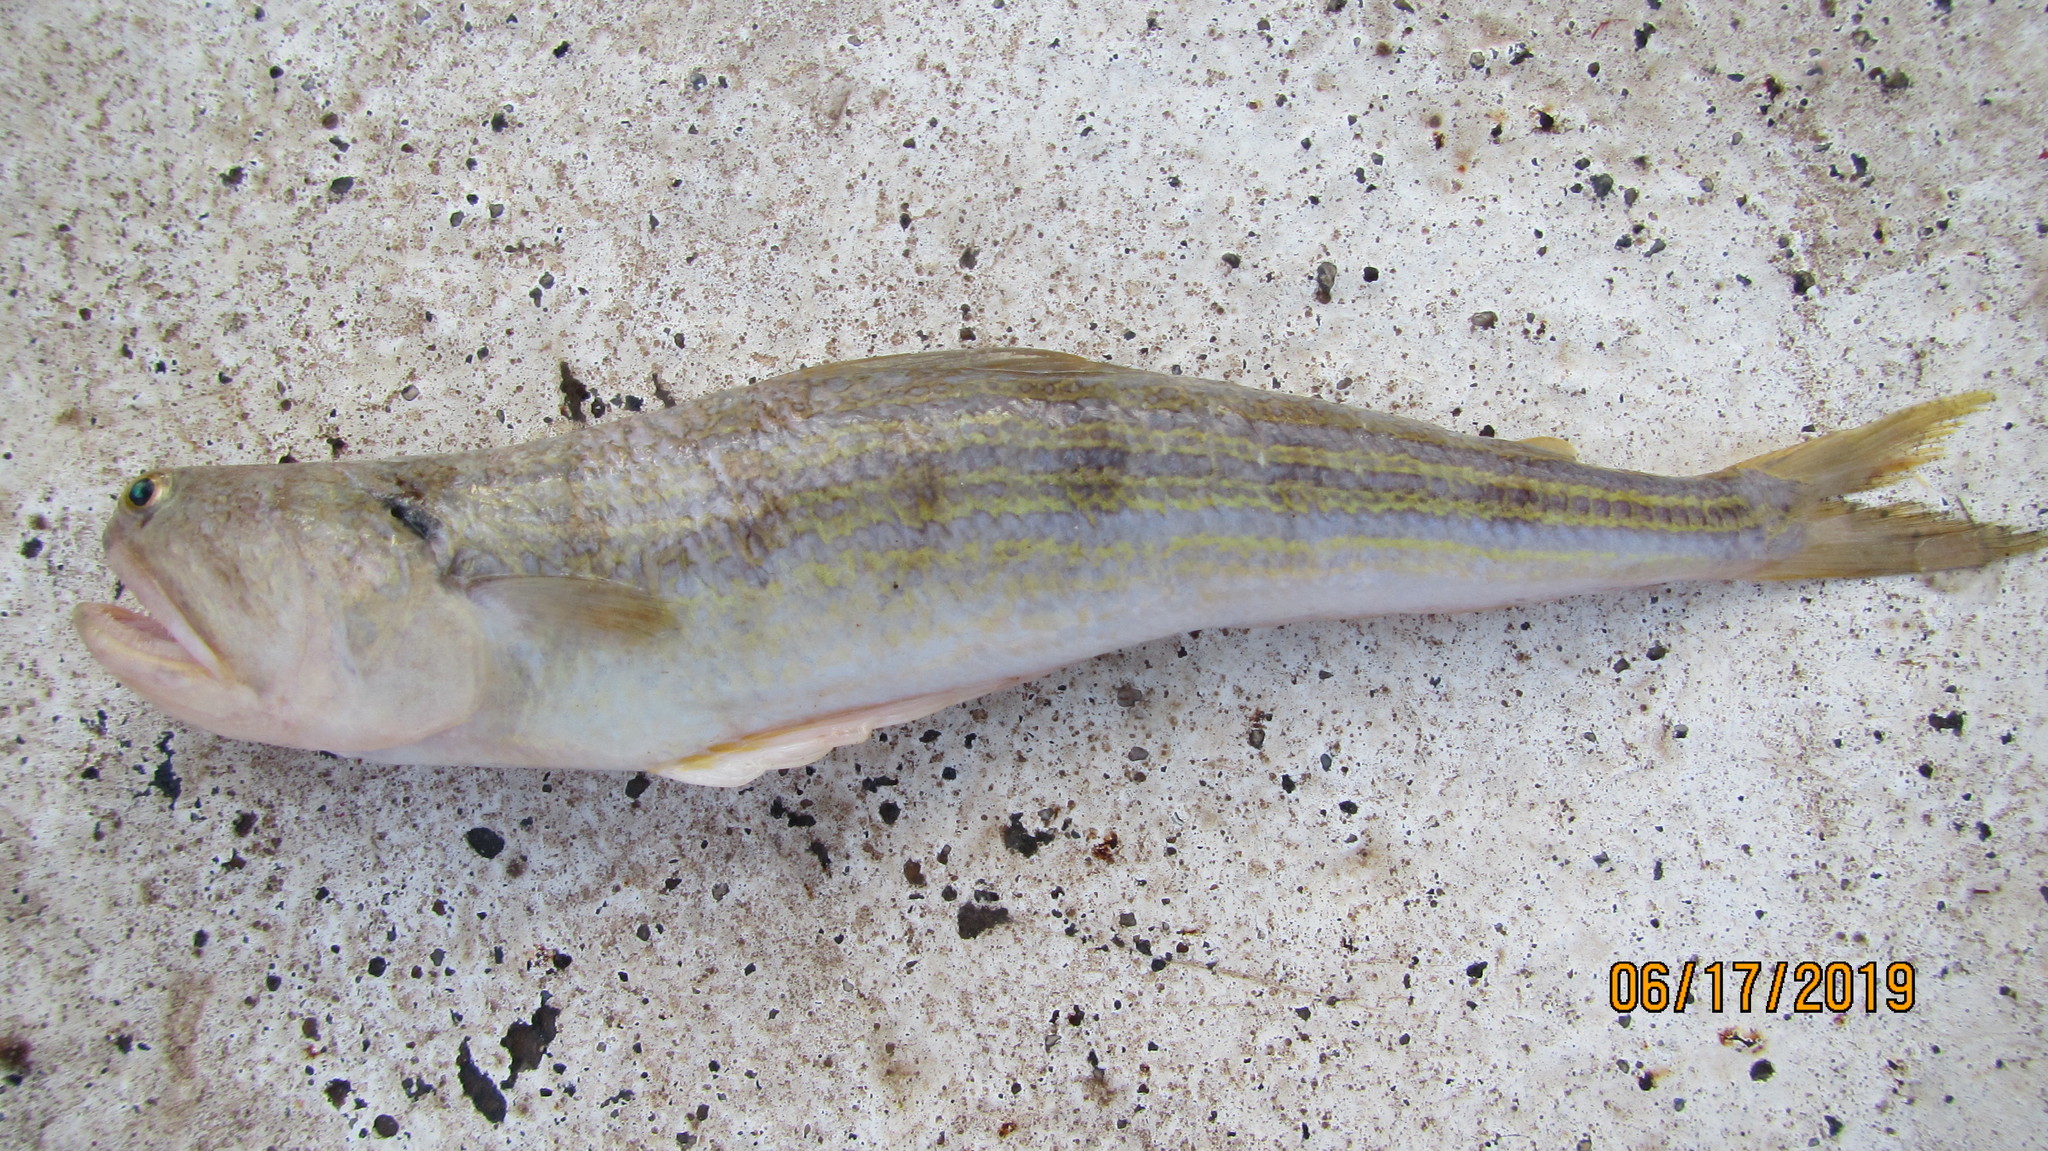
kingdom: Animalia
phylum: Chordata
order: Aulopiformes
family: Synodontidae
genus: Synodus
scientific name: Synodus myops
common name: Snakefish
